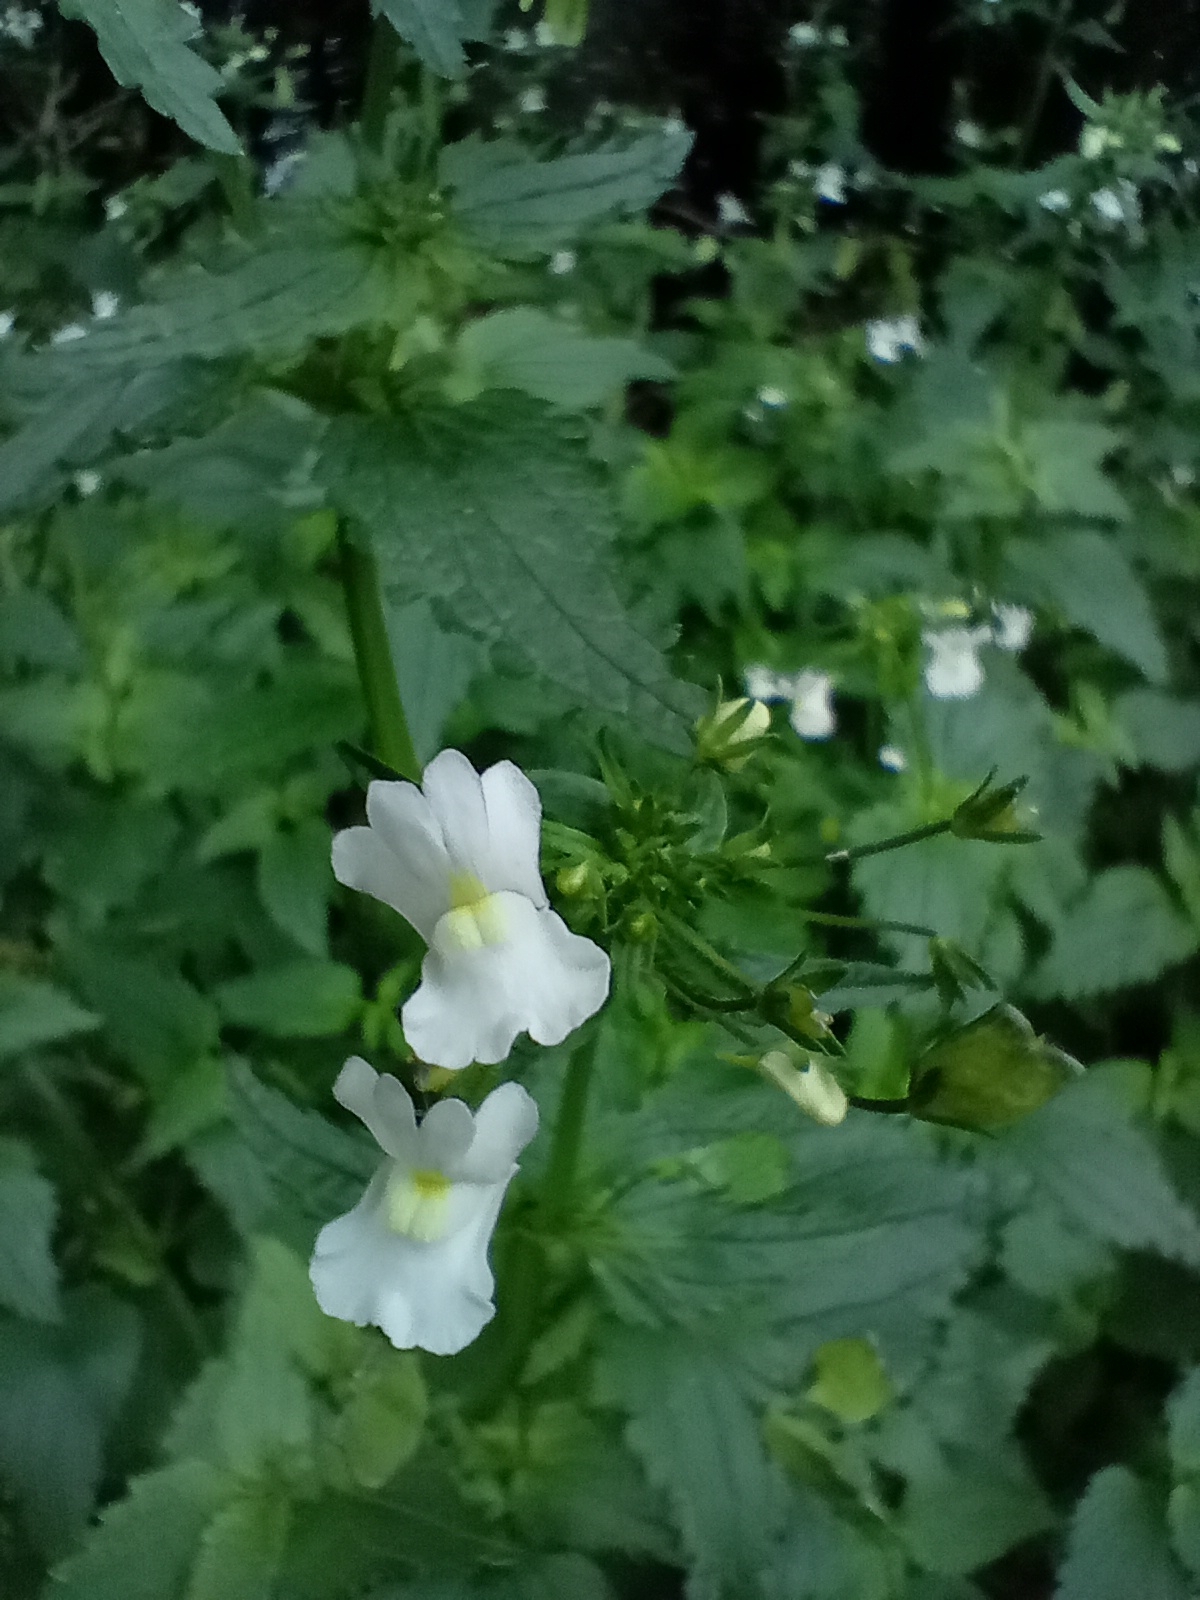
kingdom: Plantae
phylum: Tracheophyta
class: Magnoliopsida
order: Lamiales
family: Scrophulariaceae
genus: Nemesia
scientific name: Nemesia floribunda
